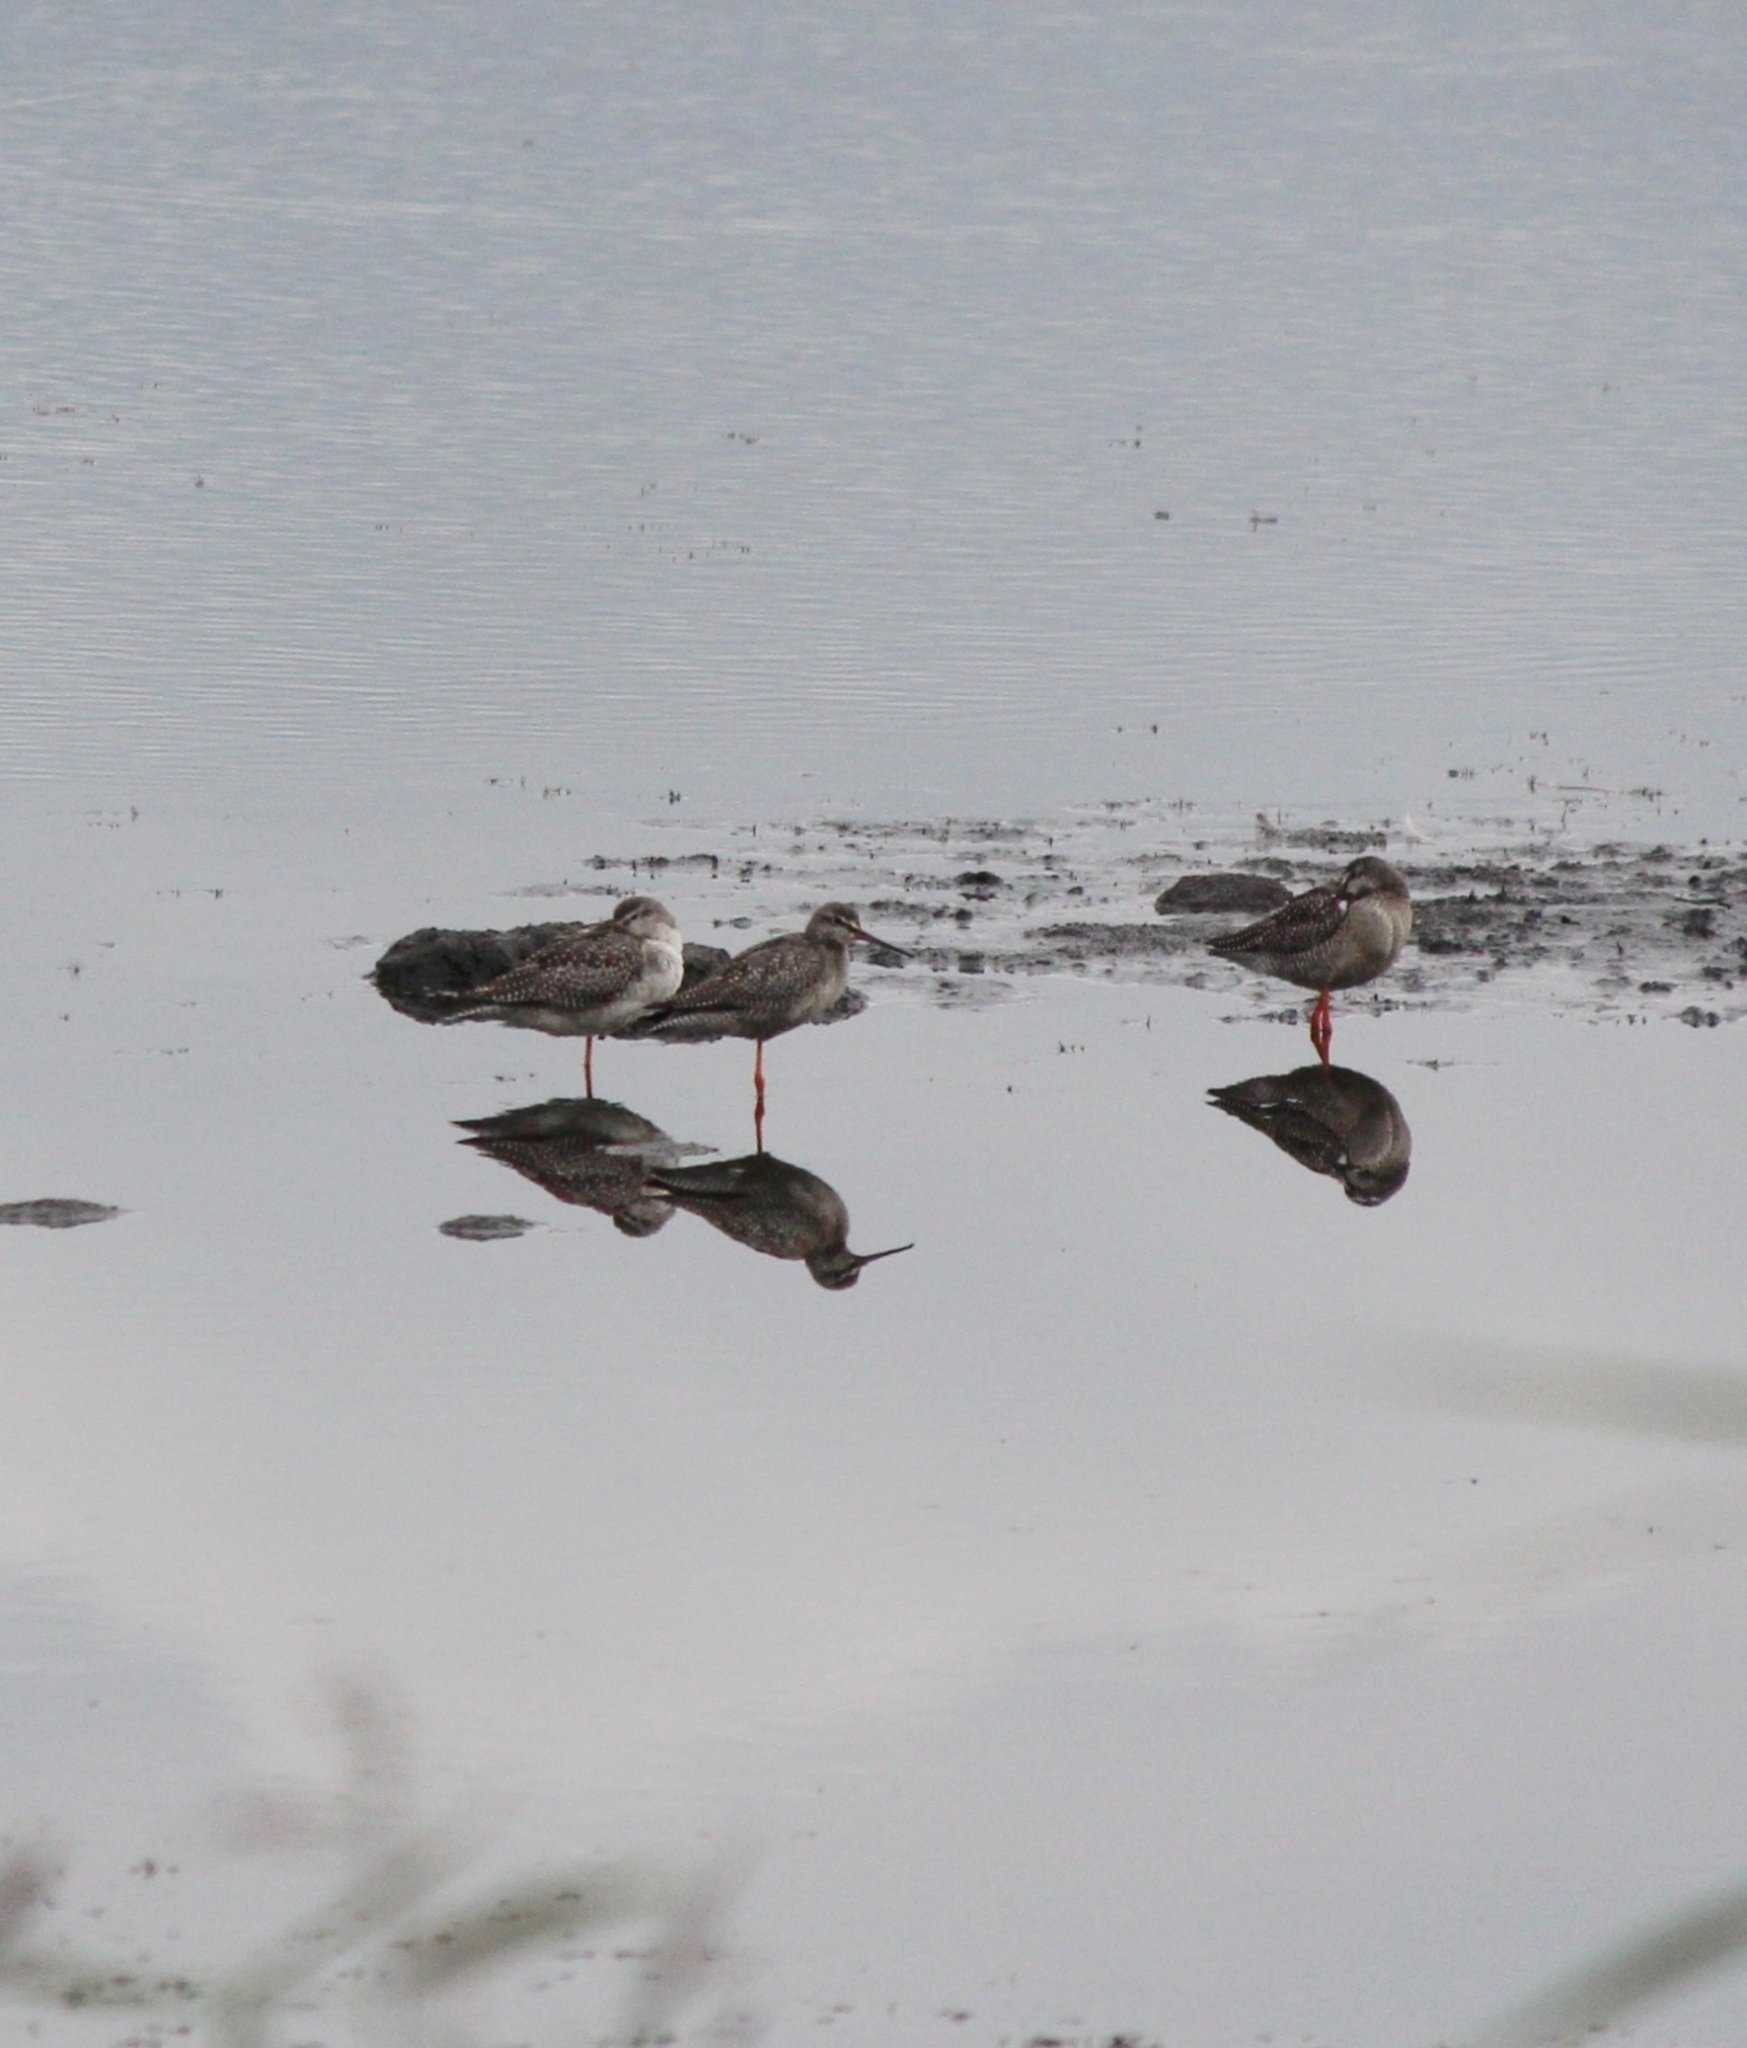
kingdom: Animalia
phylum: Chordata
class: Aves
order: Charadriiformes
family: Scolopacidae
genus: Tringa
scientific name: Tringa erythropus
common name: Spotted redshank
